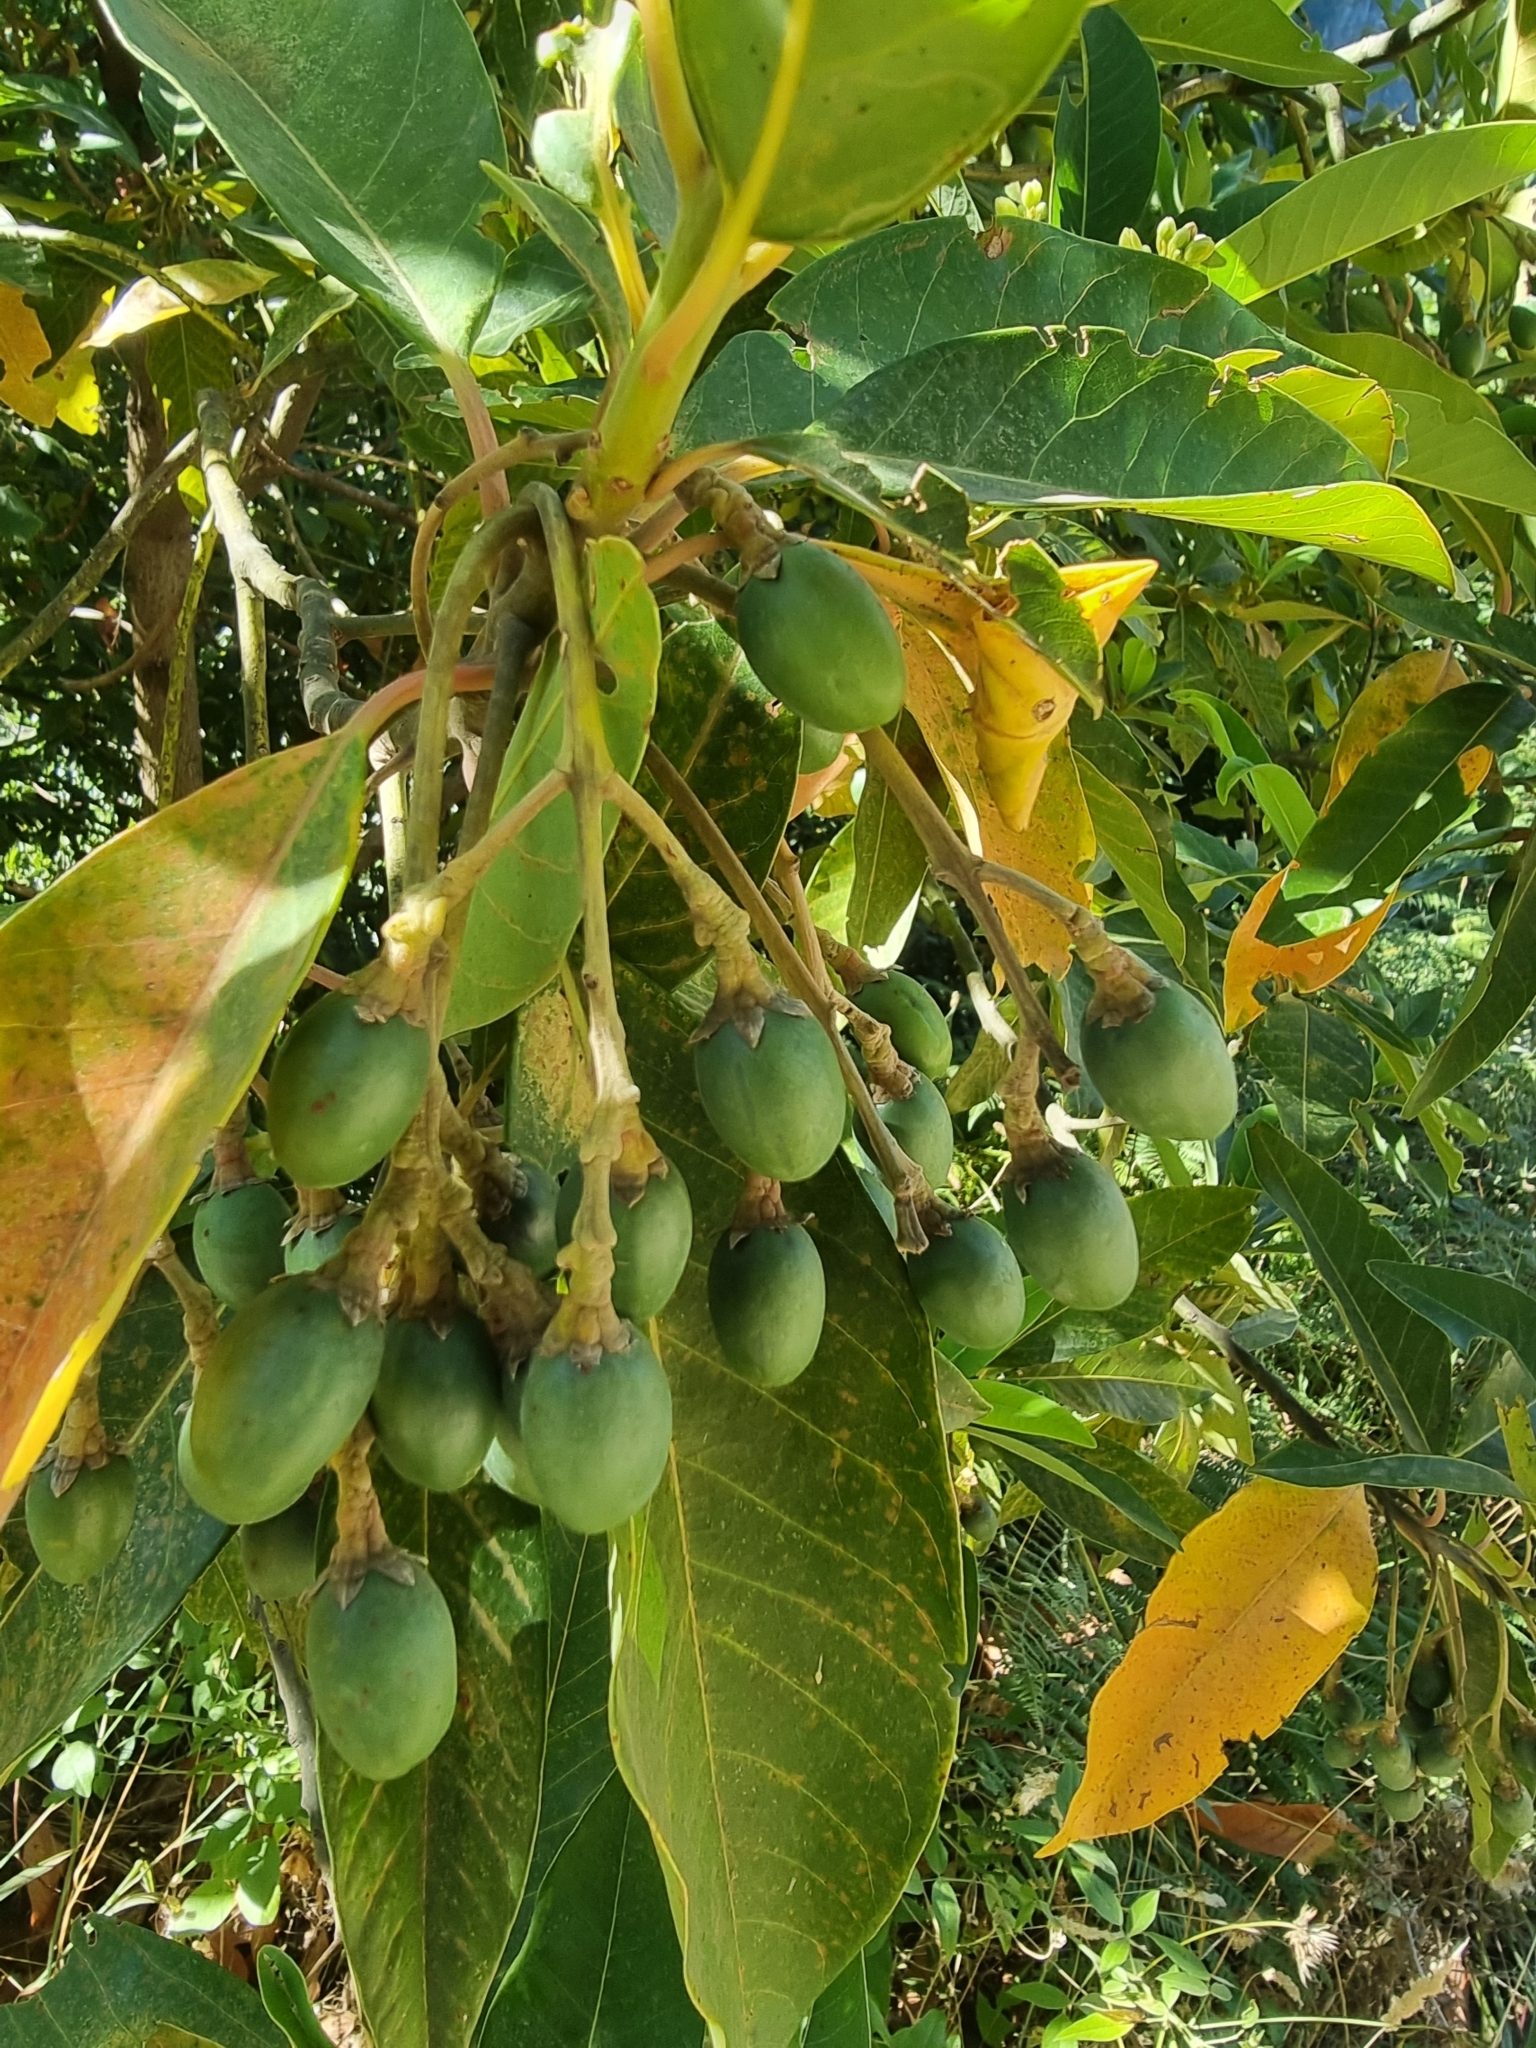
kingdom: Plantae
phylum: Tracheophyta
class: Magnoliopsida
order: Laurales
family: Lauraceae
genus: Persea
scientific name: Persea indica
